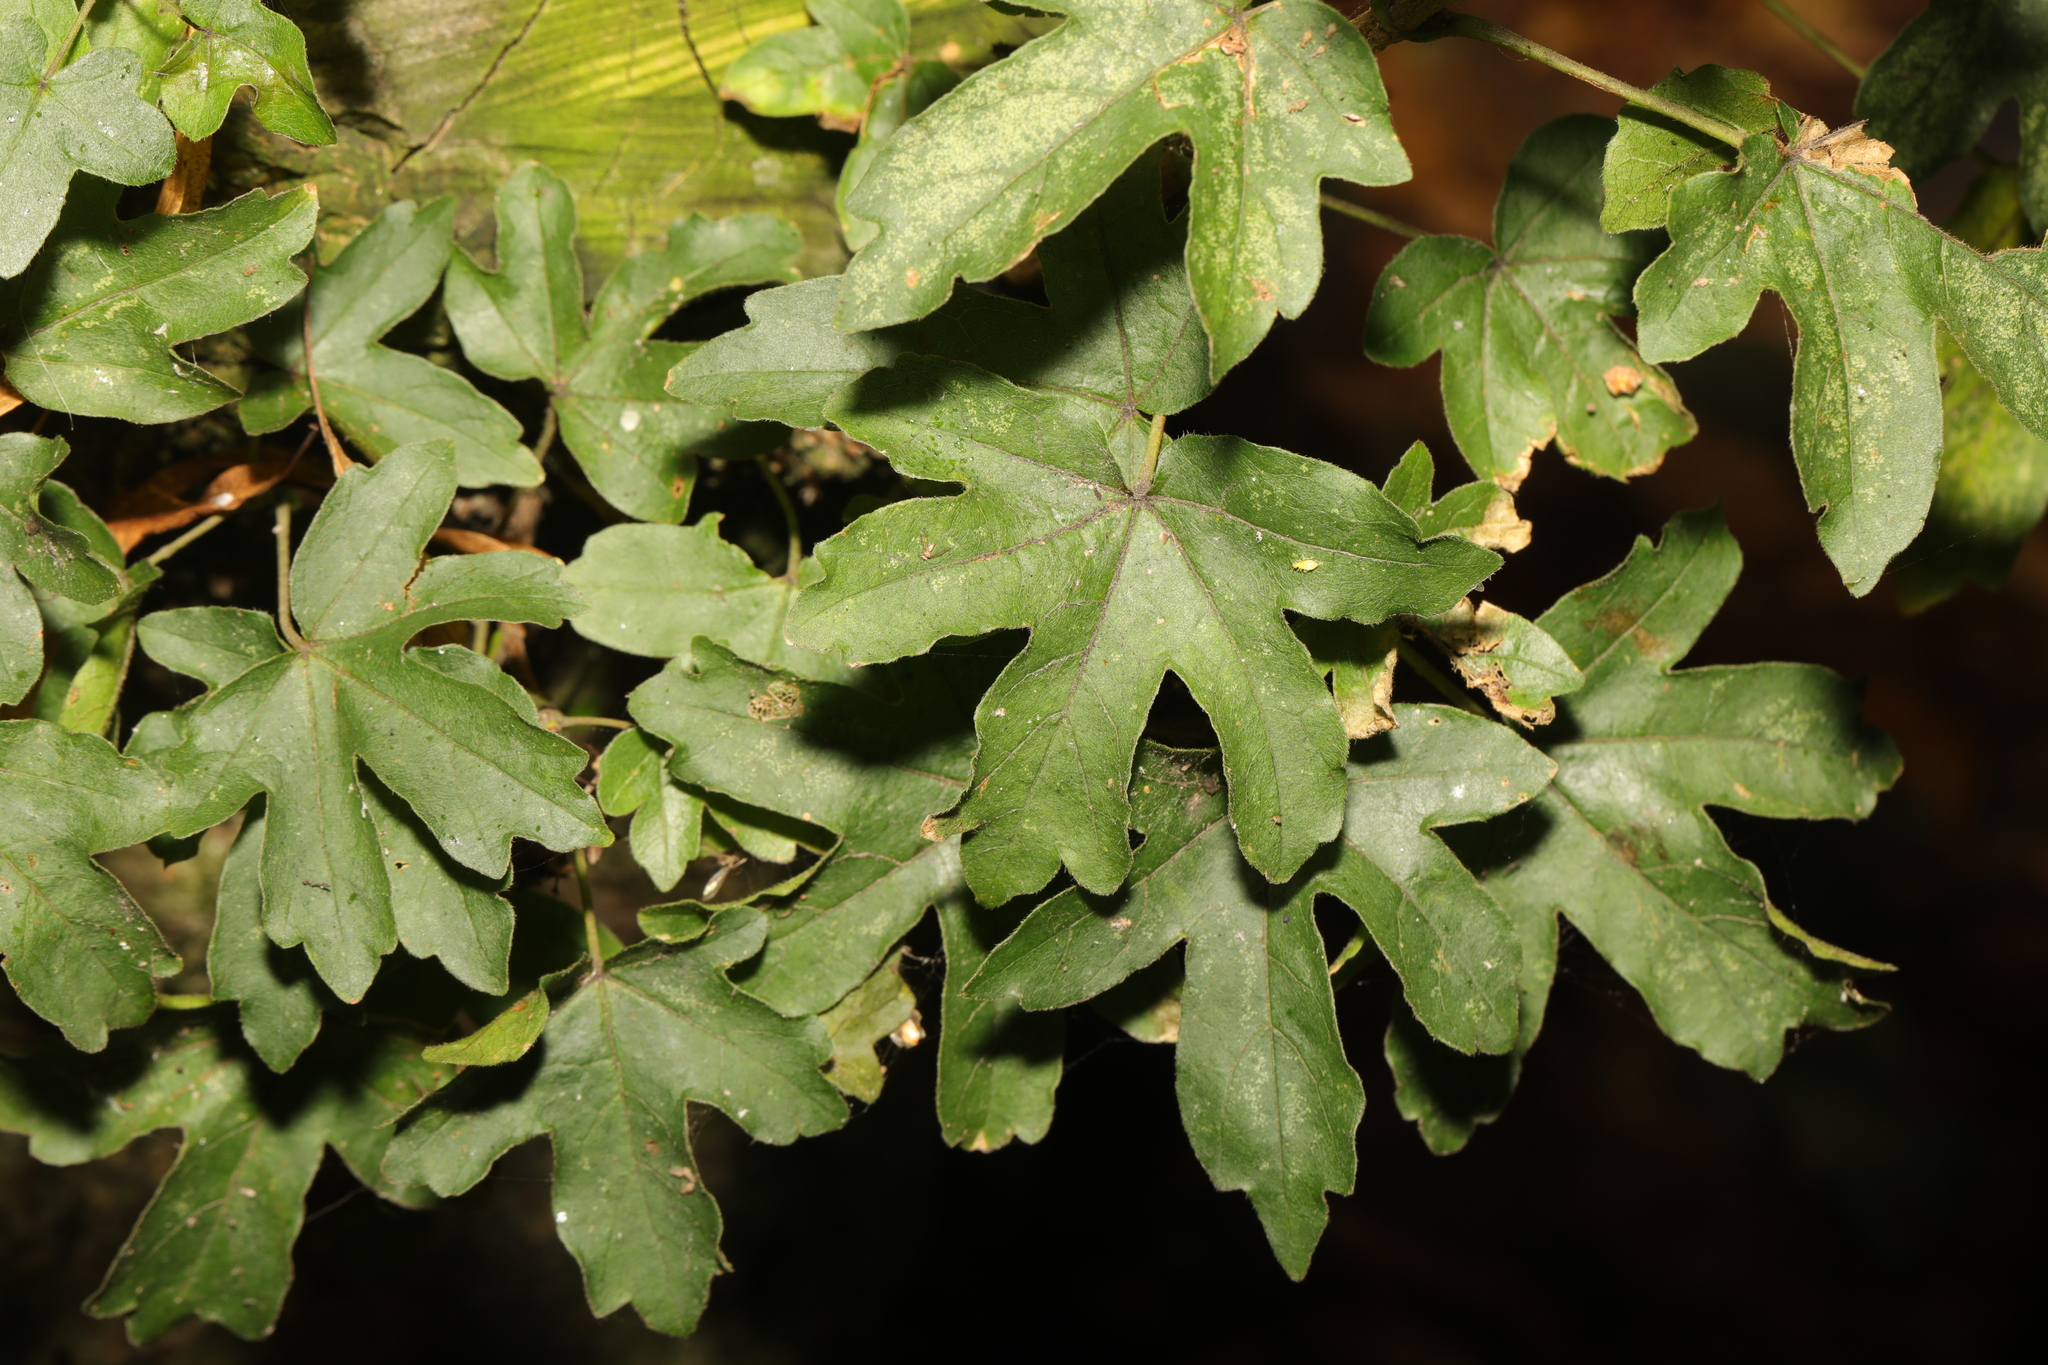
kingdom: Plantae
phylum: Tracheophyta
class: Magnoliopsida
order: Sapindales
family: Sapindaceae
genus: Acer
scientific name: Acer campestre
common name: Field maple
